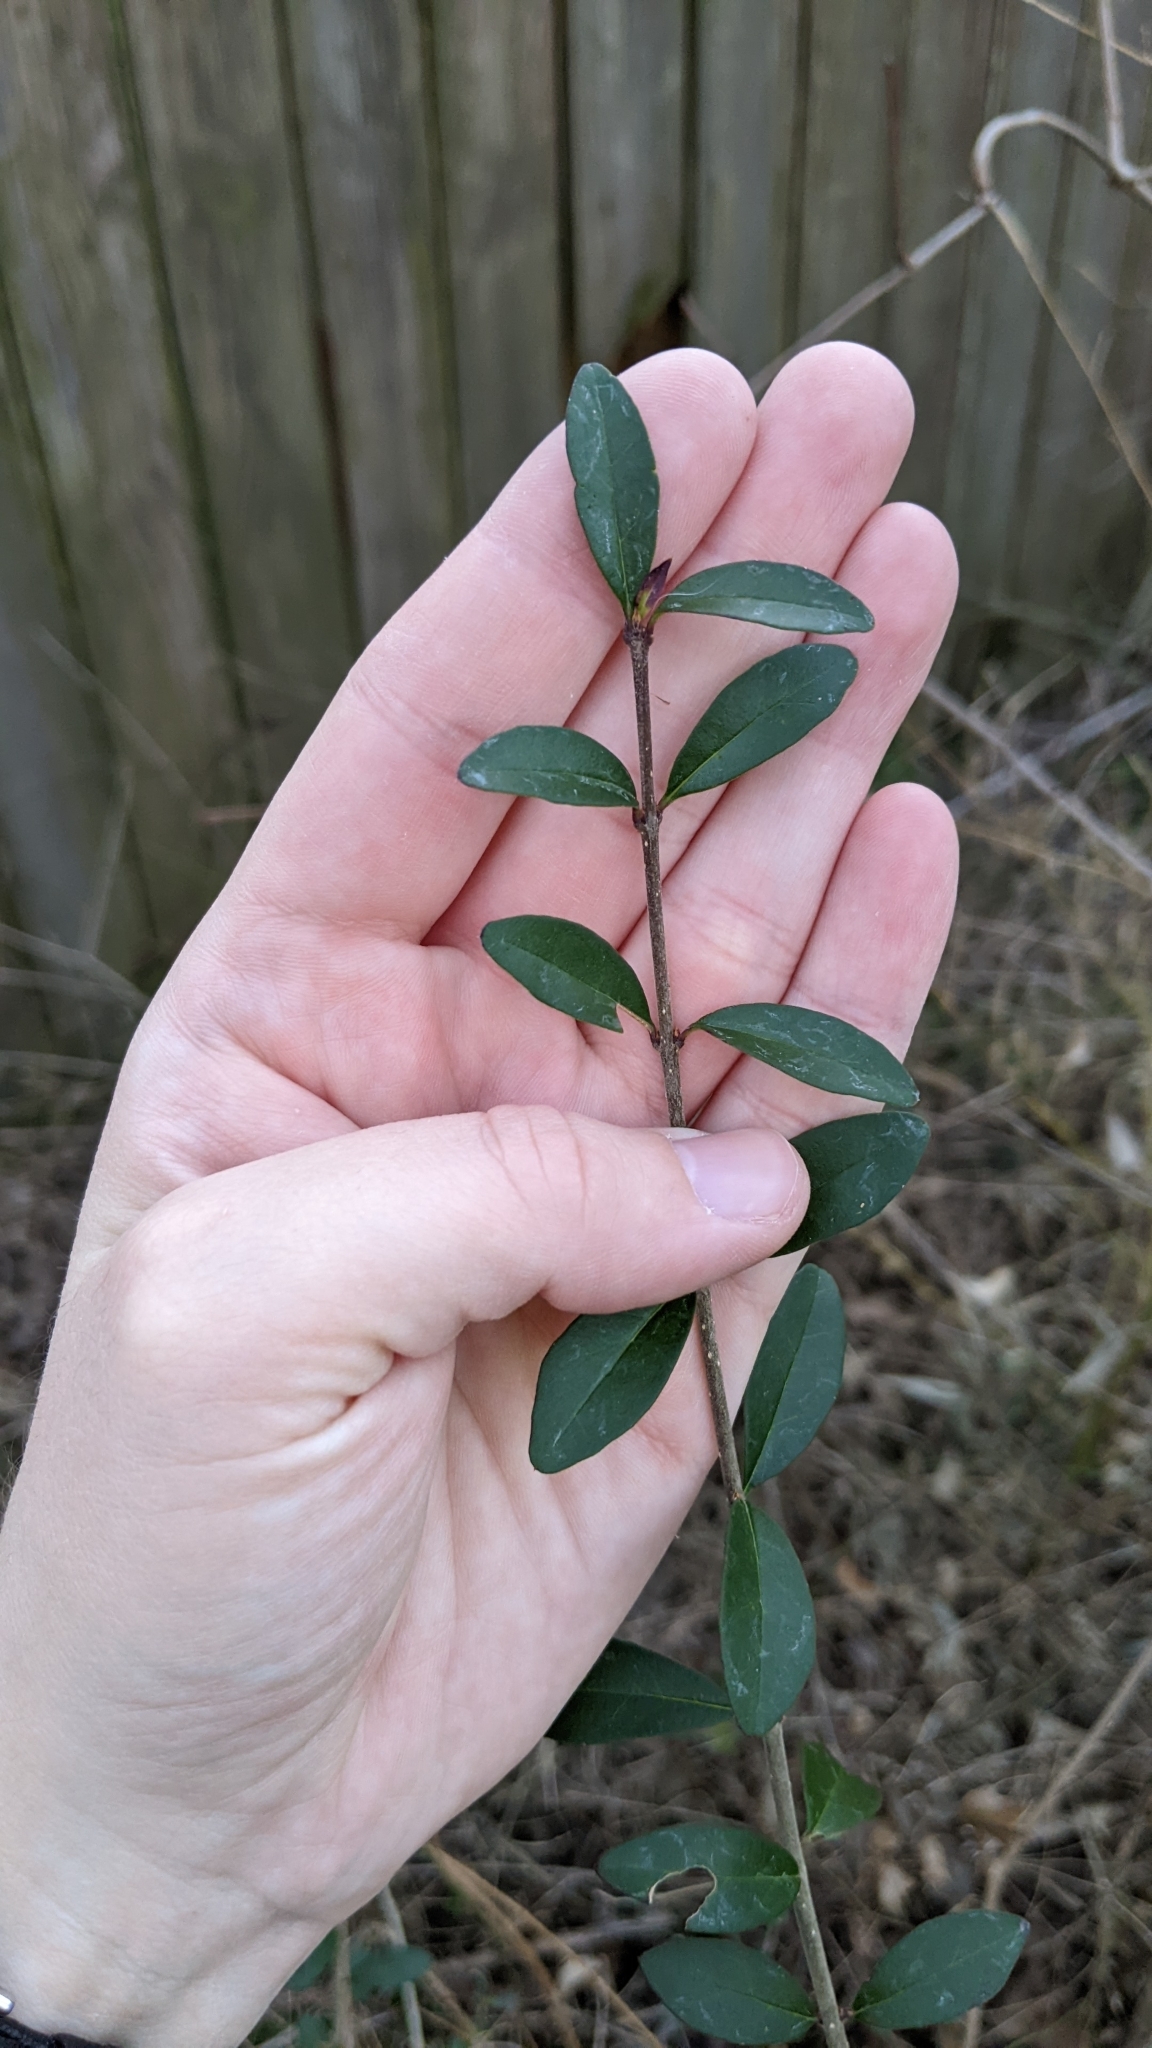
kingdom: Plantae
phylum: Tracheophyta
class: Magnoliopsida
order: Lamiales
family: Oleaceae
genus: Ligustrum
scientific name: Ligustrum quihoui
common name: Waxyleaf privet
